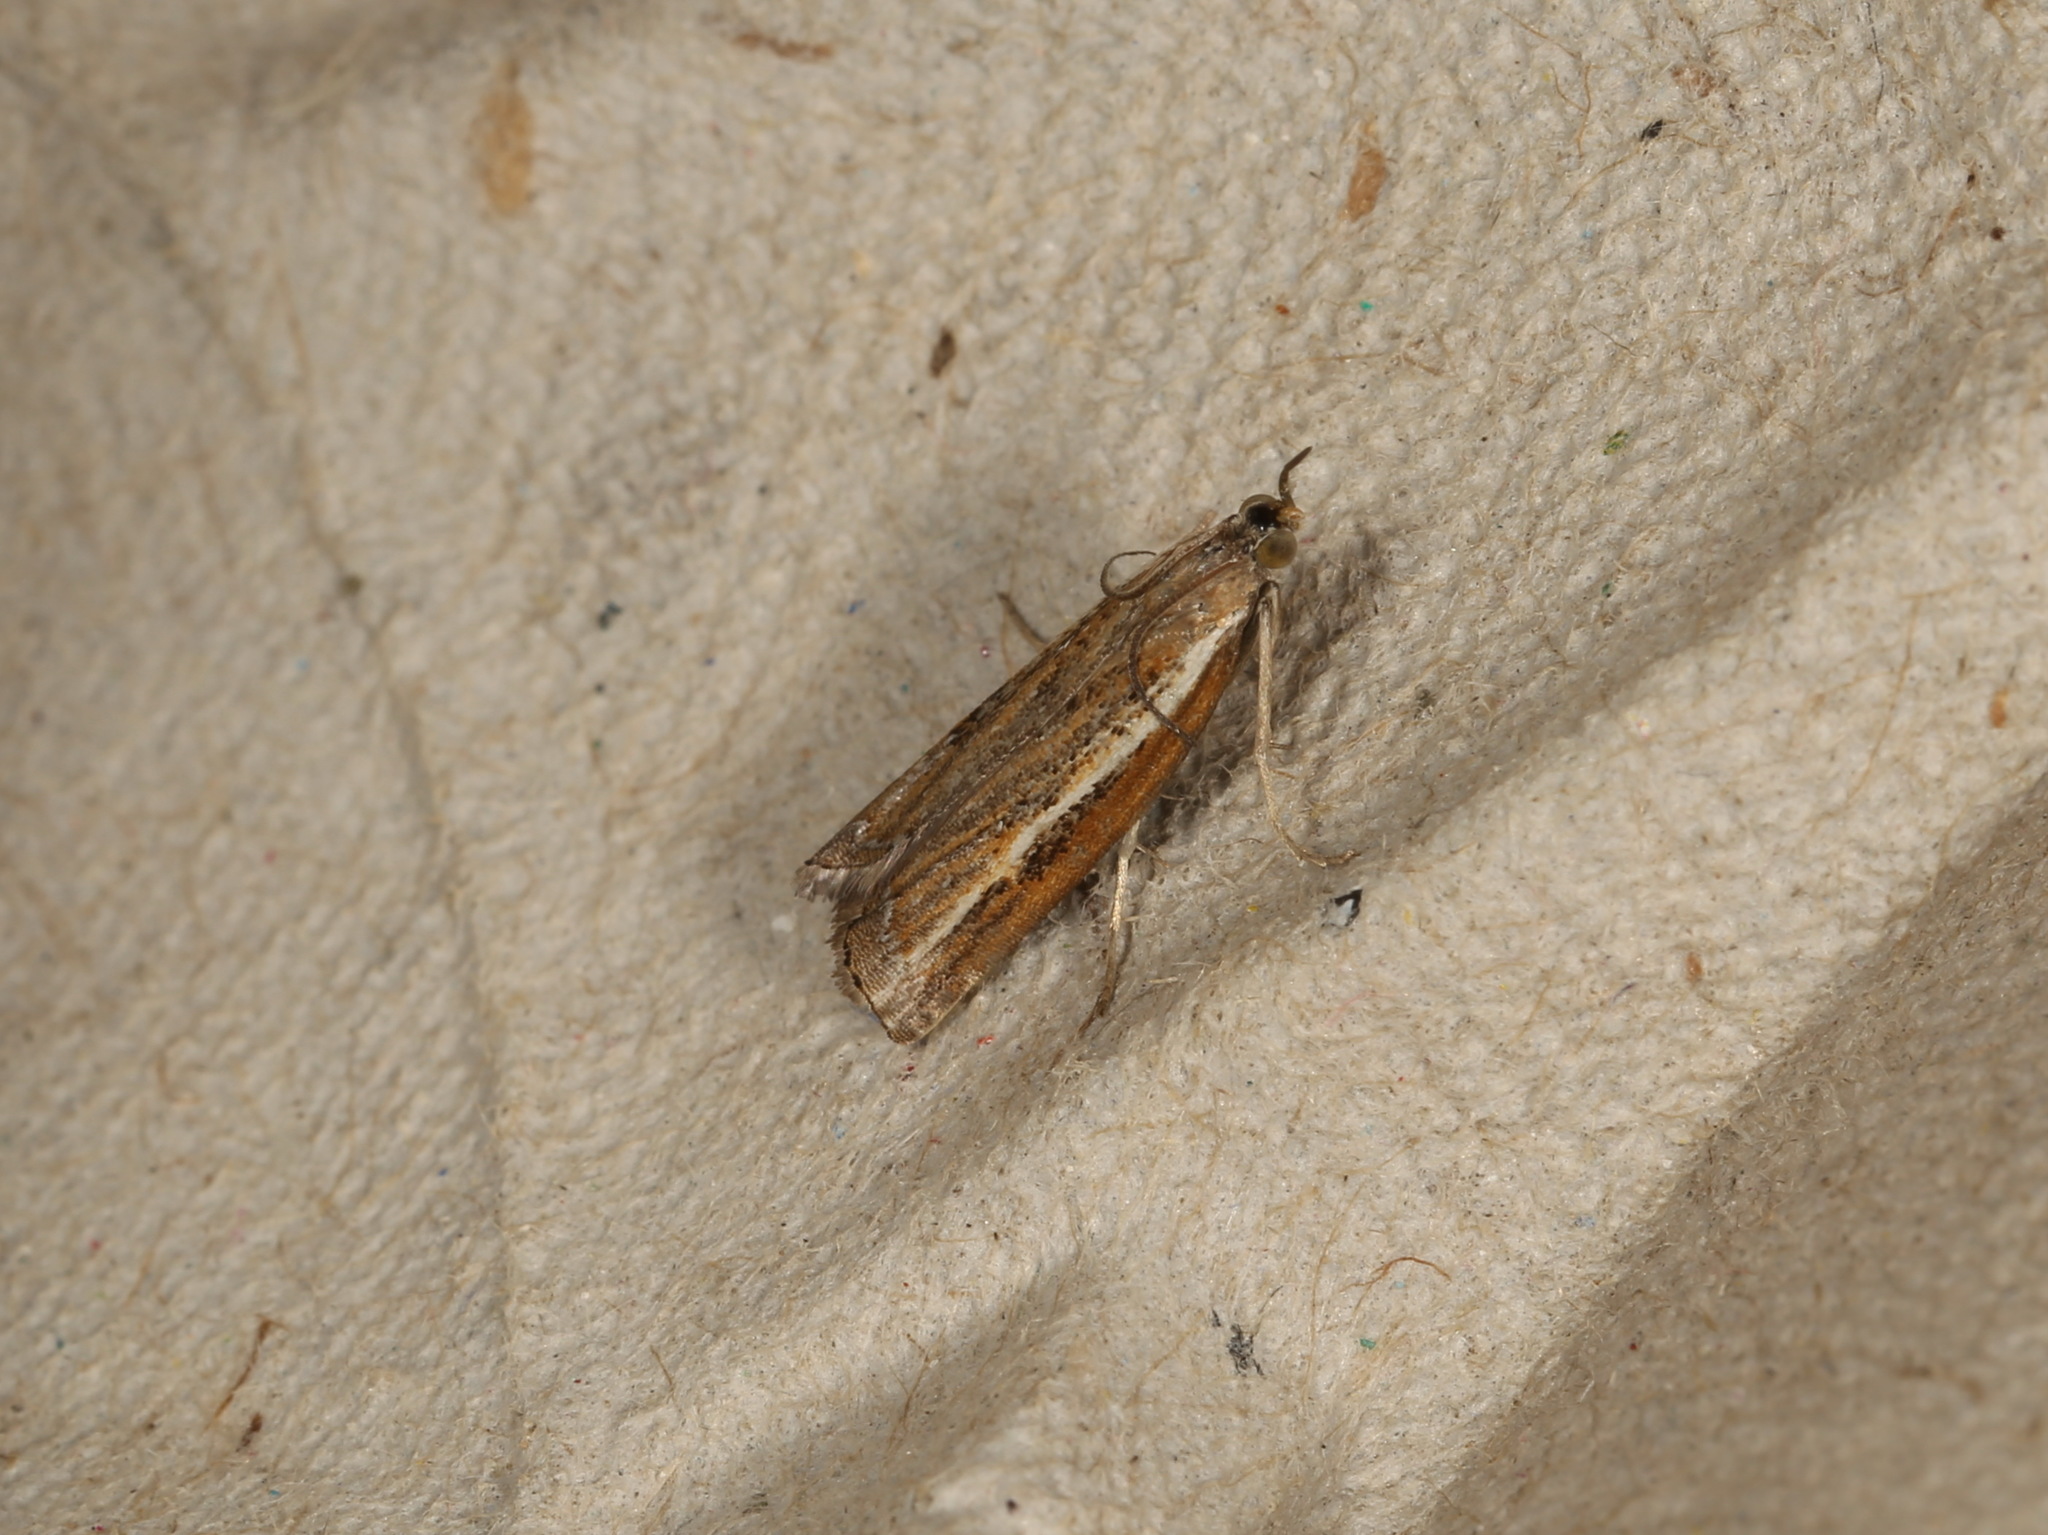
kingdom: Animalia
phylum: Arthropoda
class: Insecta
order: Lepidoptera
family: Crambidae
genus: Ptochostola
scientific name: Ptochostola microphaeellus
